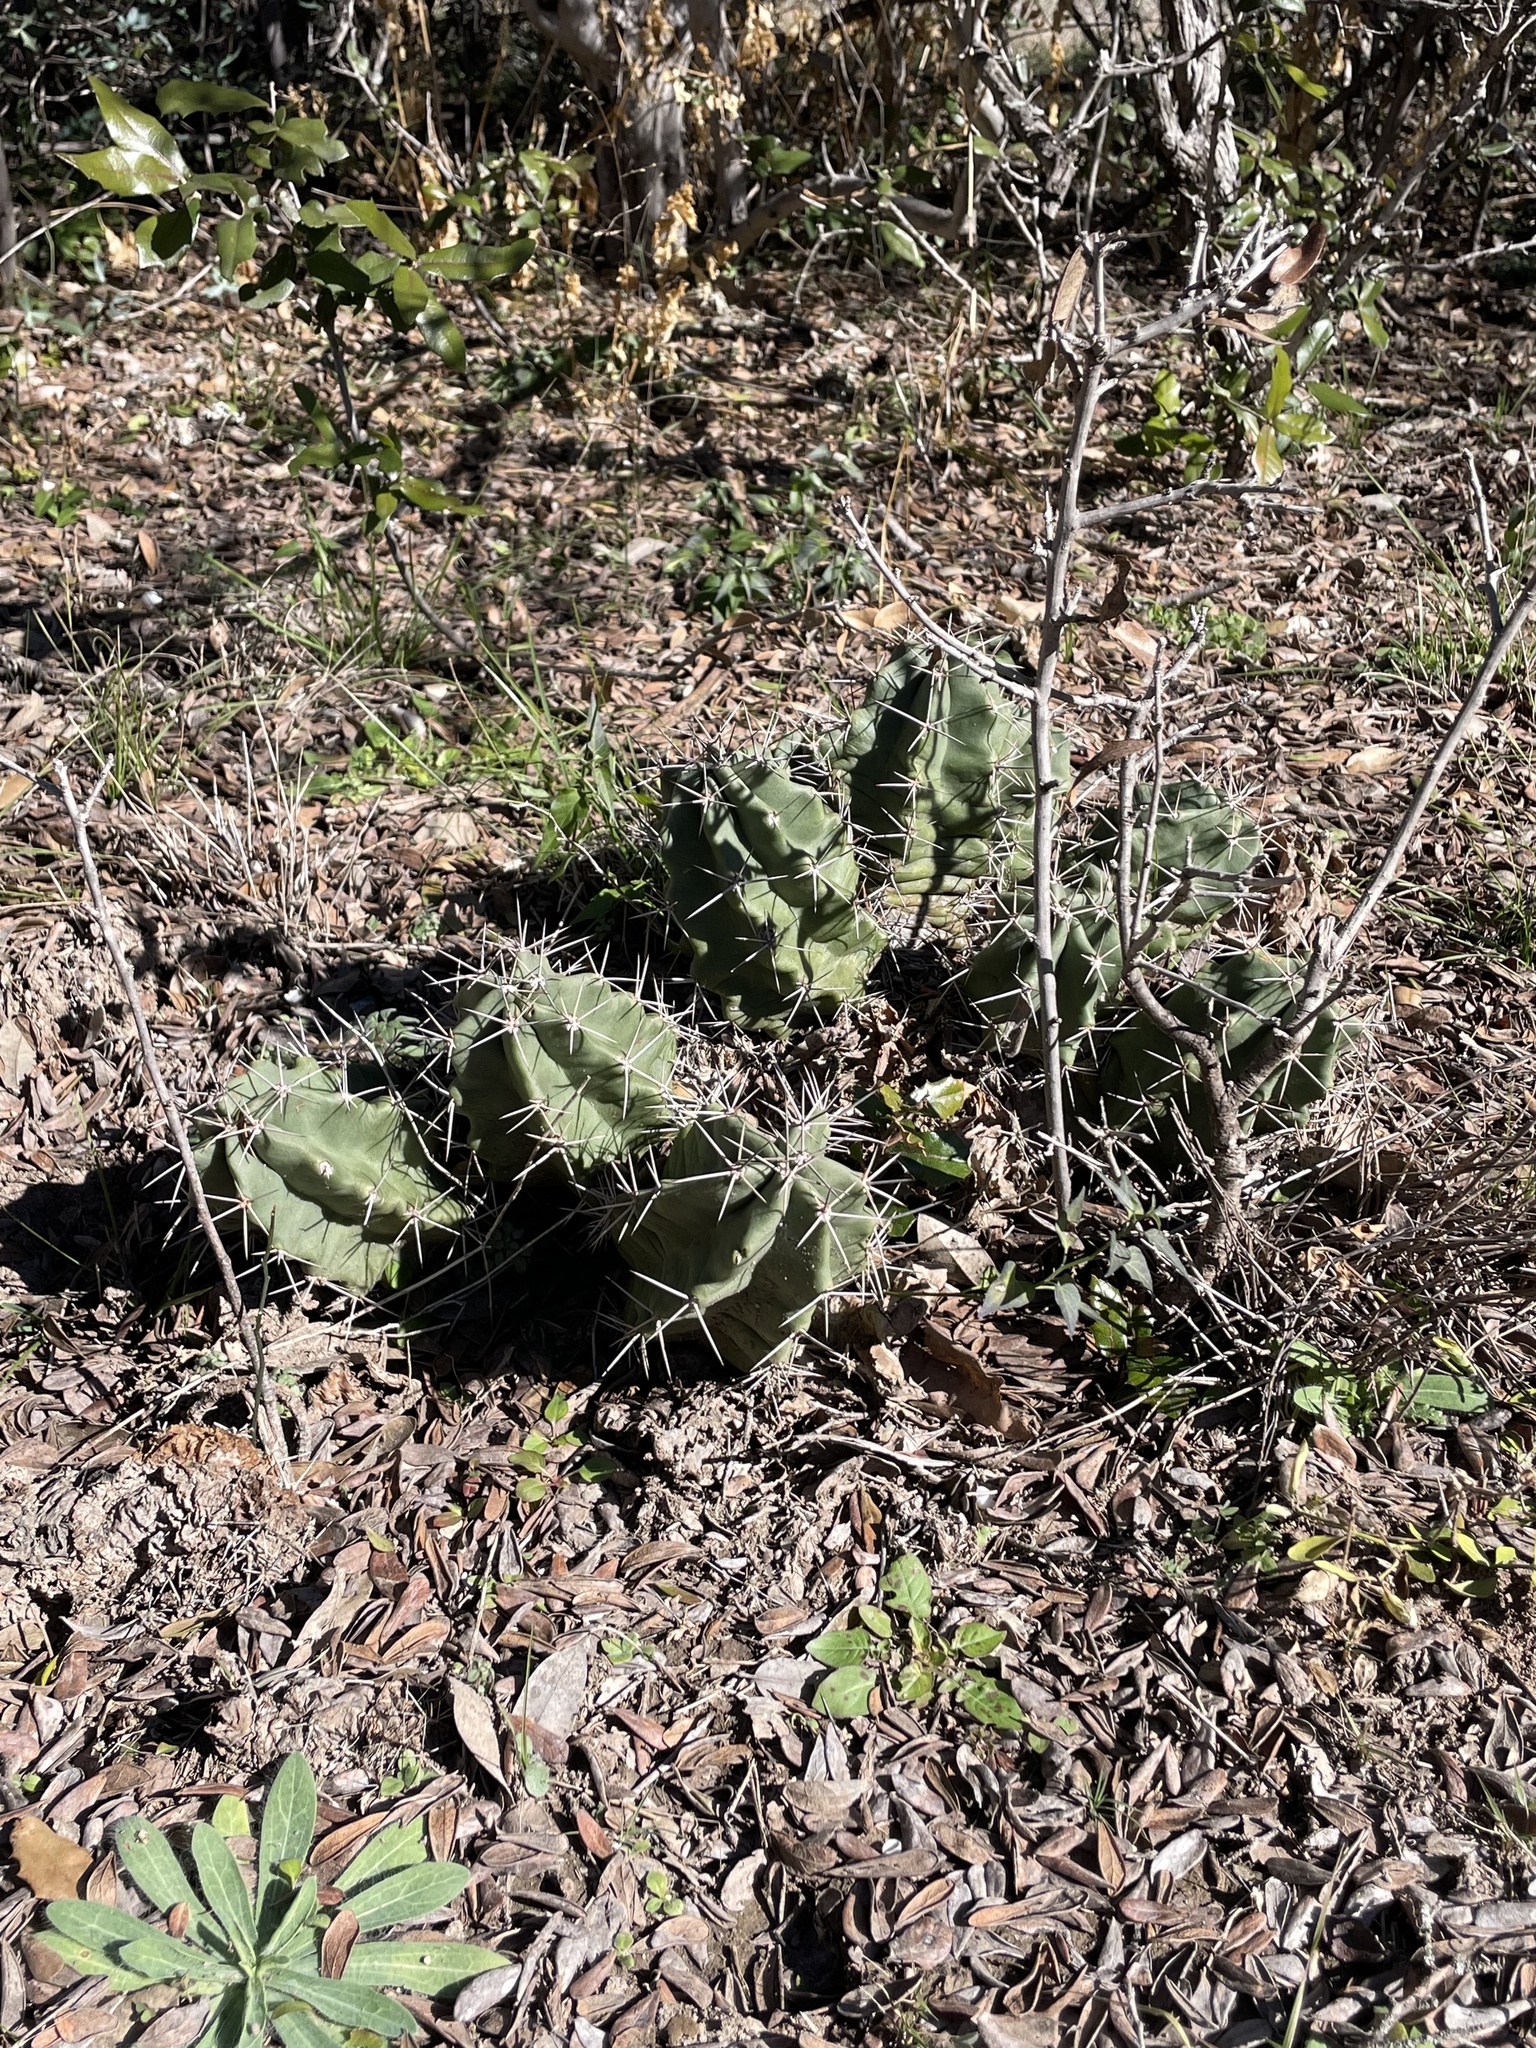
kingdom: Plantae
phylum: Tracheophyta
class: Magnoliopsida
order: Caryophyllales
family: Cactaceae
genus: Echinocereus
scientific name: Echinocereus coccineus
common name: Scarlet hedgehog cactus
